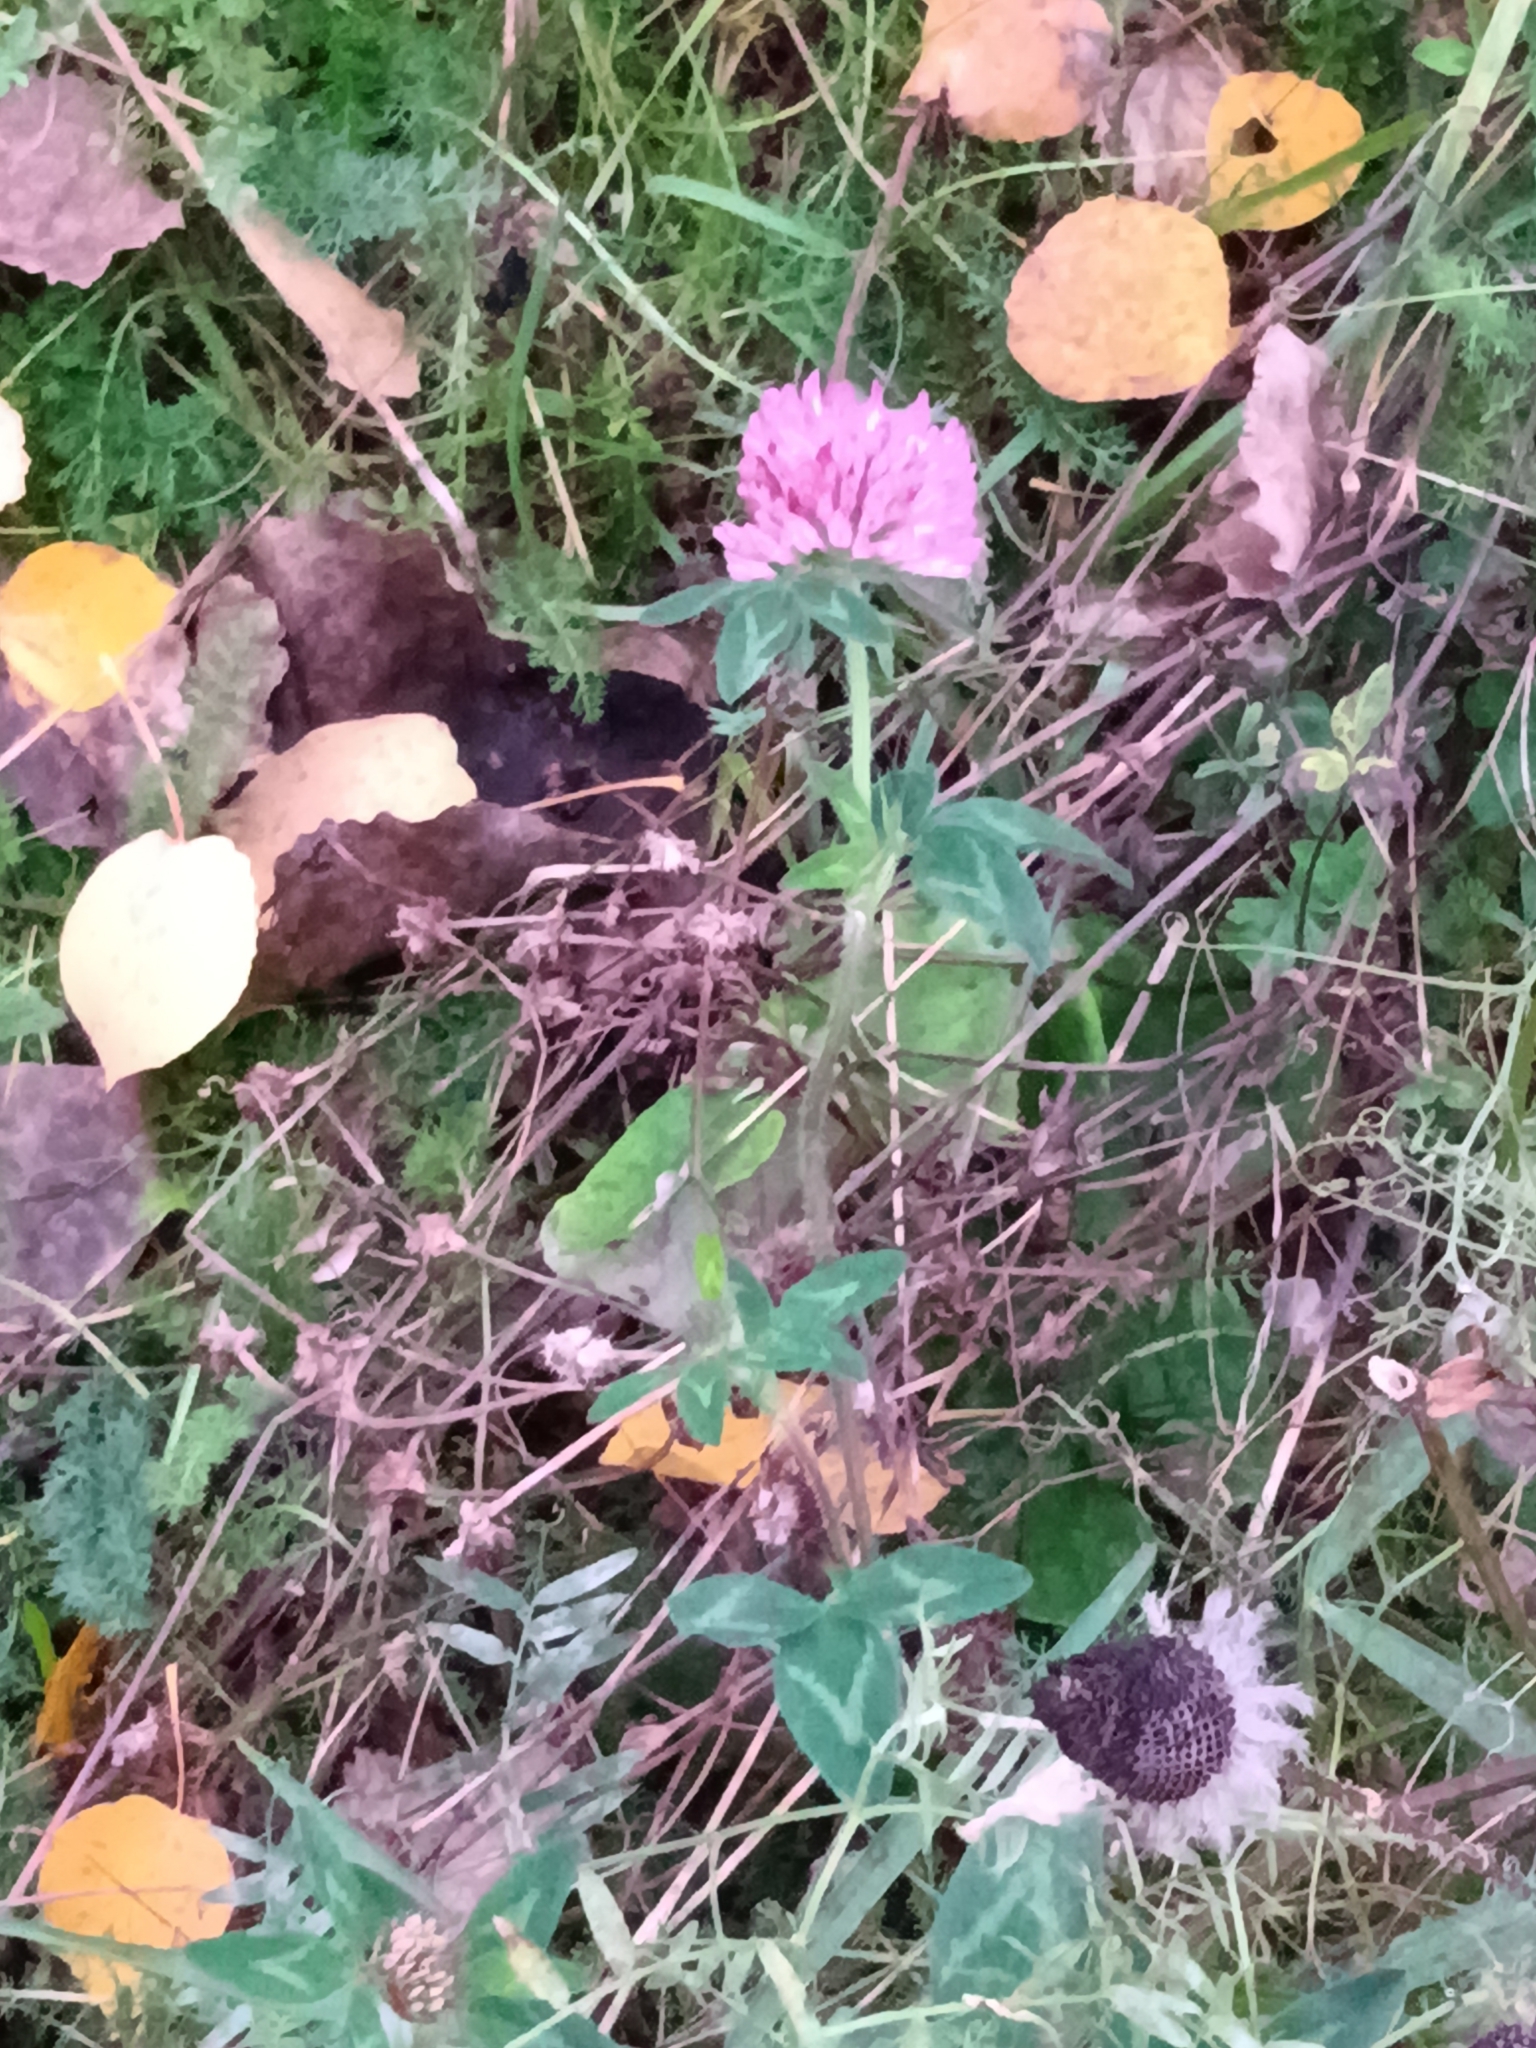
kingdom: Plantae
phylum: Tracheophyta
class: Magnoliopsida
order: Fabales
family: Fabaceae
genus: Trifolium
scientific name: Trifolium pratense
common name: Red clover
